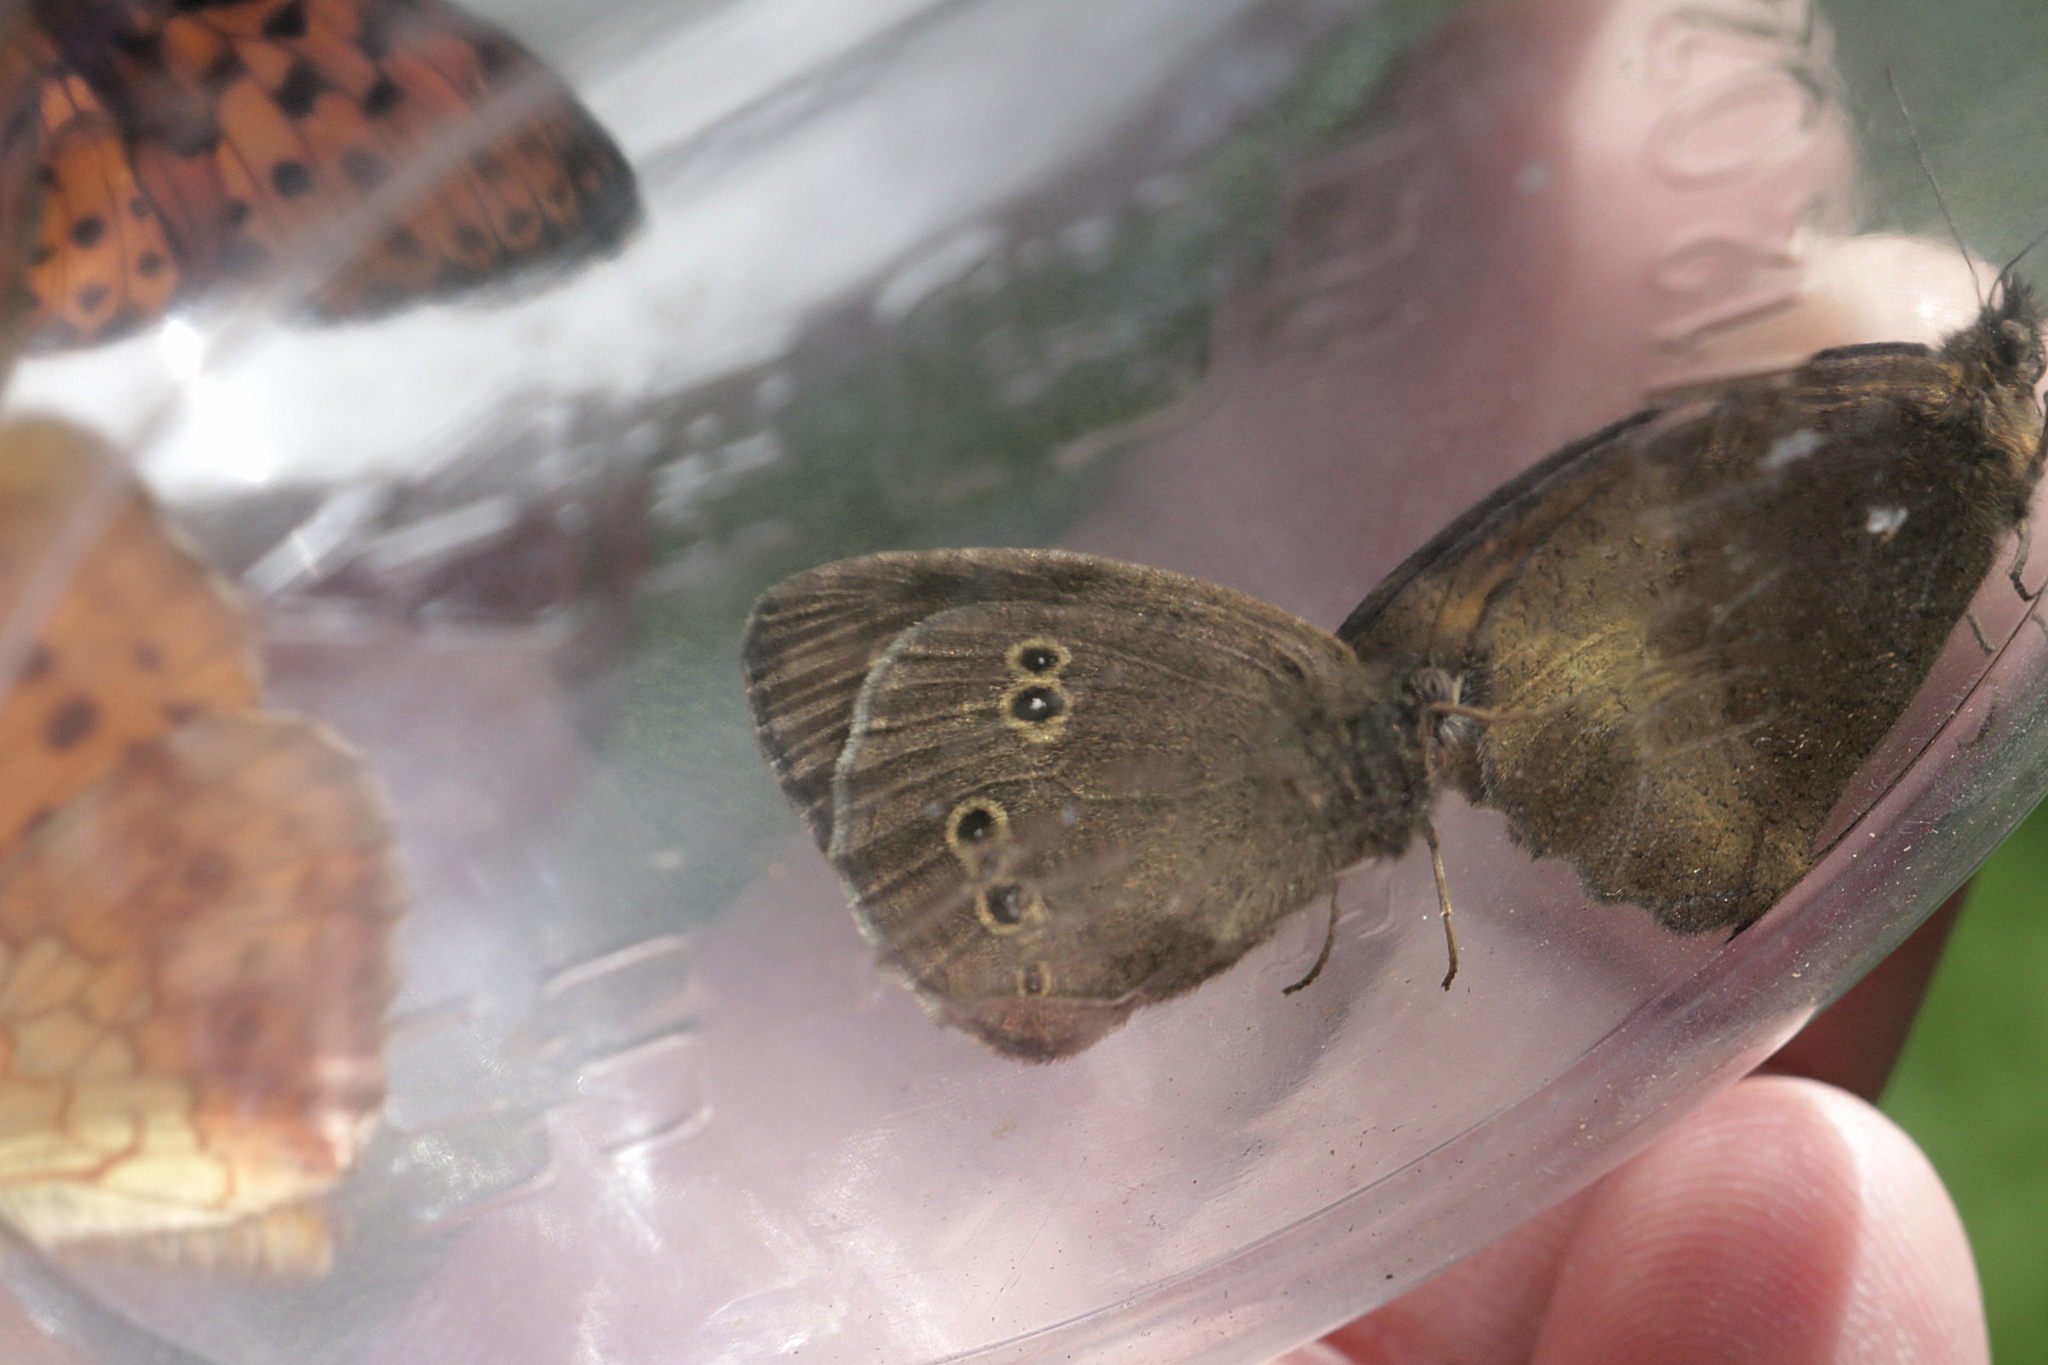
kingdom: Animalia
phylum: Arthropoda
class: Insecta
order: Lepidoptera
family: Nymphalidae
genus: Aphantopus
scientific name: Aphantopus hyperantus
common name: Ringlet
